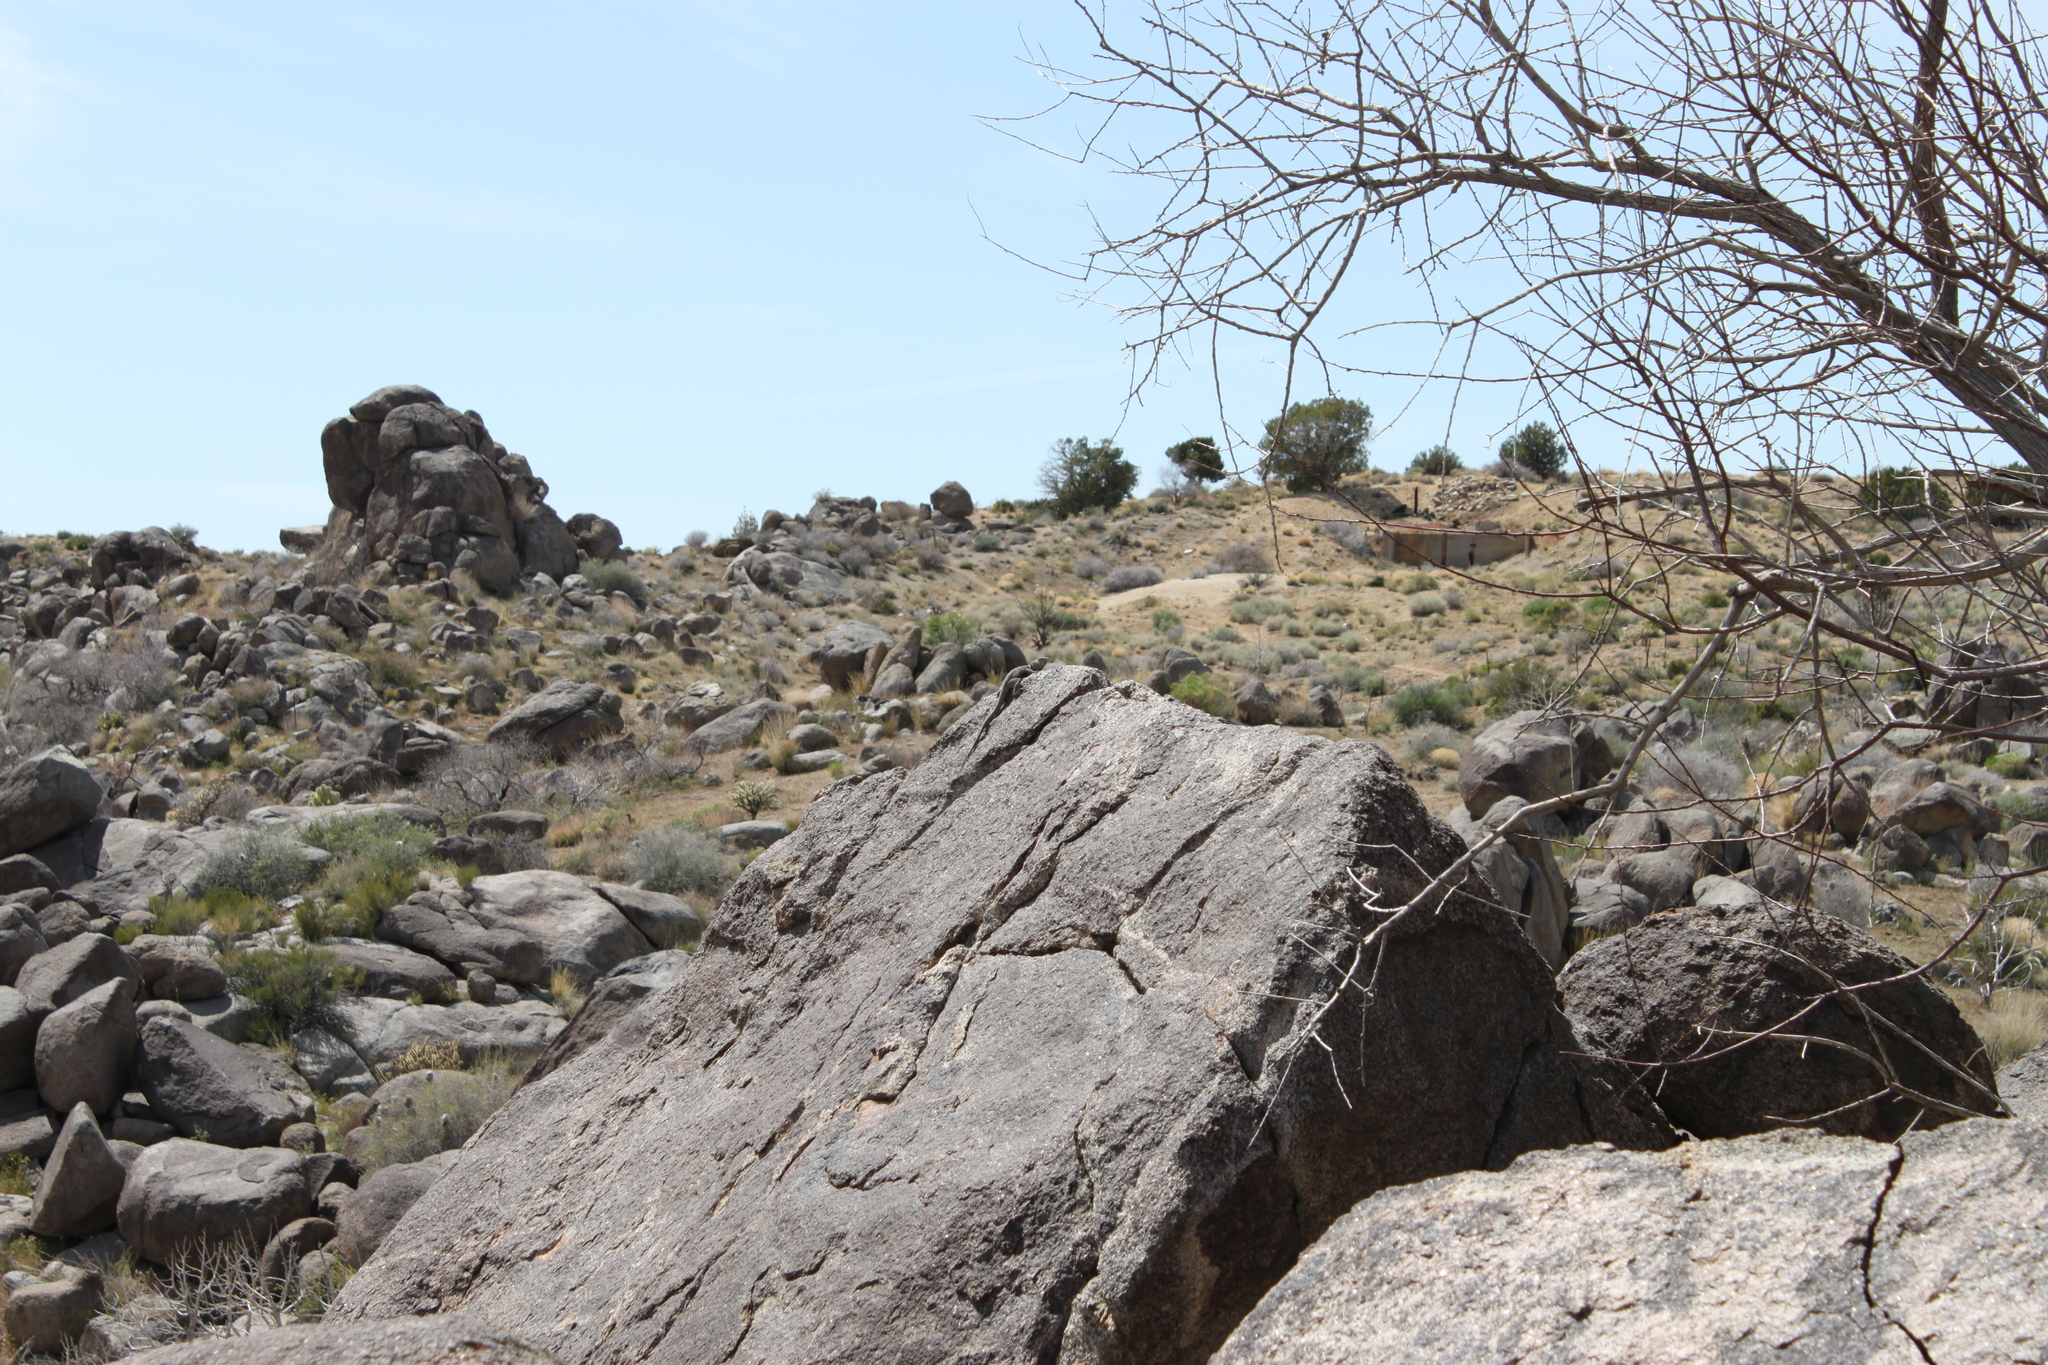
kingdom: Animalia
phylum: Chordata
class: Squamata
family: Crotaphytidae
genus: Crotaphytus
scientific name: Crotaphytus bicinctores
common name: Mojave black-collared lizard
